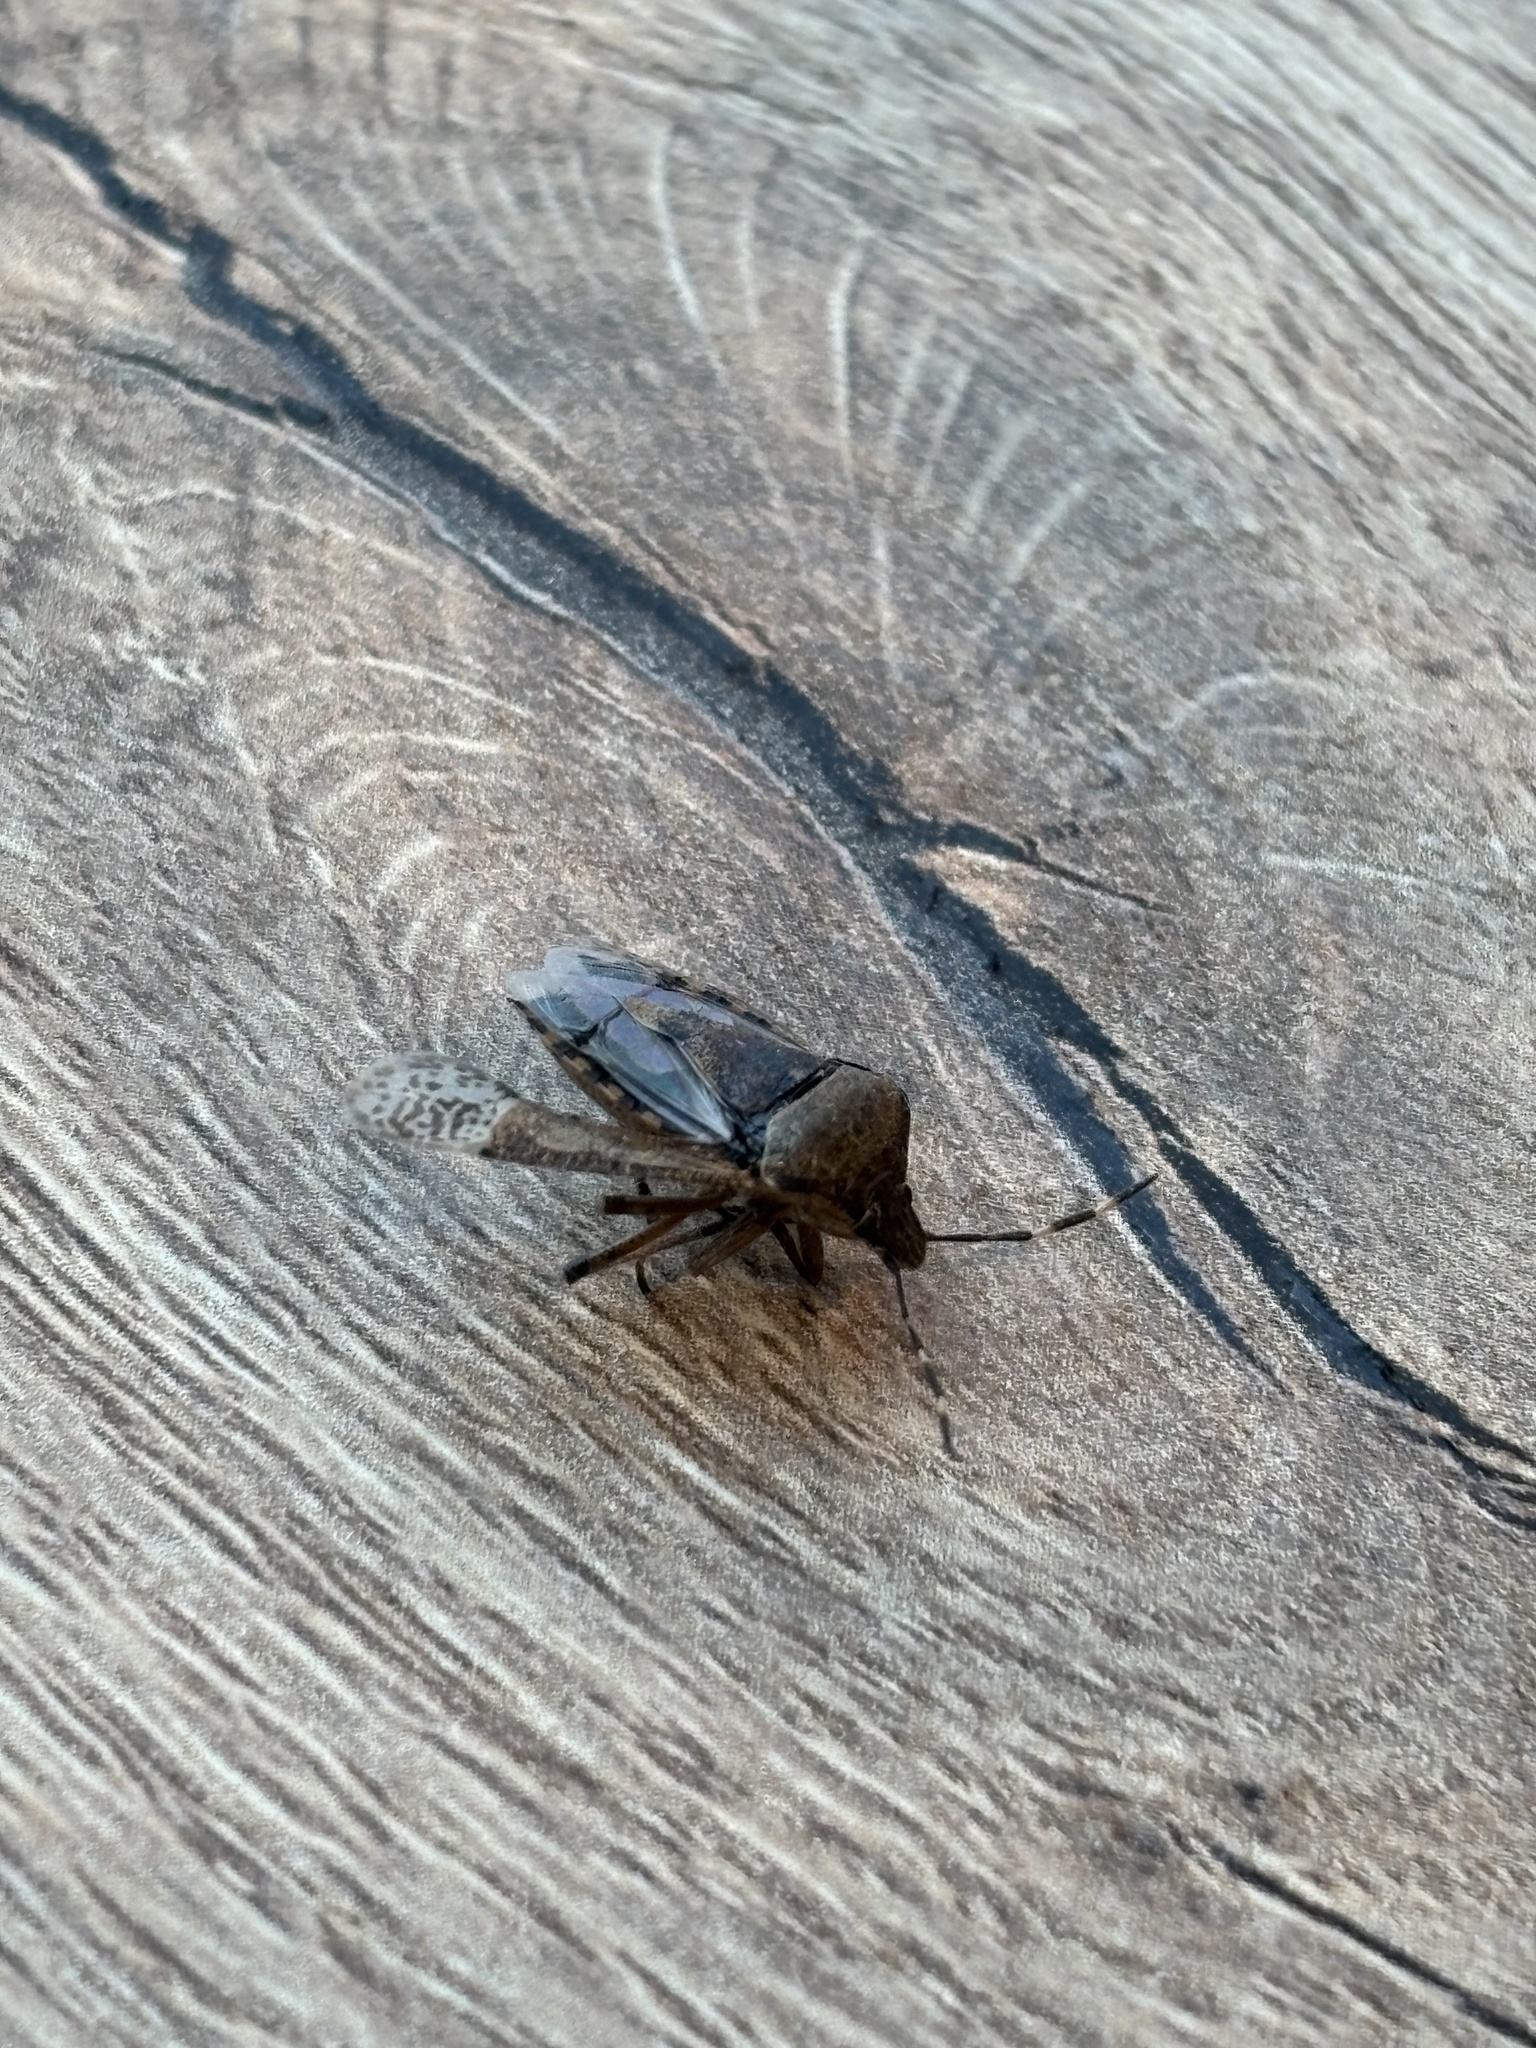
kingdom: Animalia
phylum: Arthropoda
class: Insecta
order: Hemiptera
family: Pentatomidae
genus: Rhaphigaster
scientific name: Rhaphigaster nebulosa
